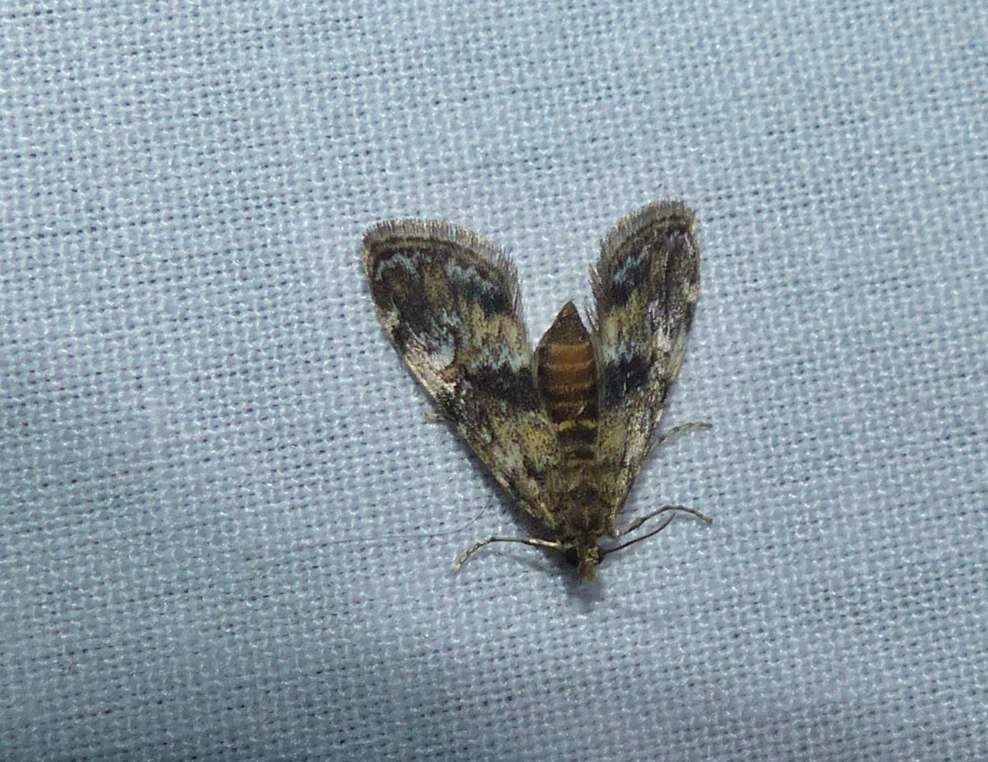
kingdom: Animalia
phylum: Arthropoda
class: Insecta
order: Lepidoptera
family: Crambidae
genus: Elophila
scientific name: Elophila obliteralis
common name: Waterlily leafcutter moth
